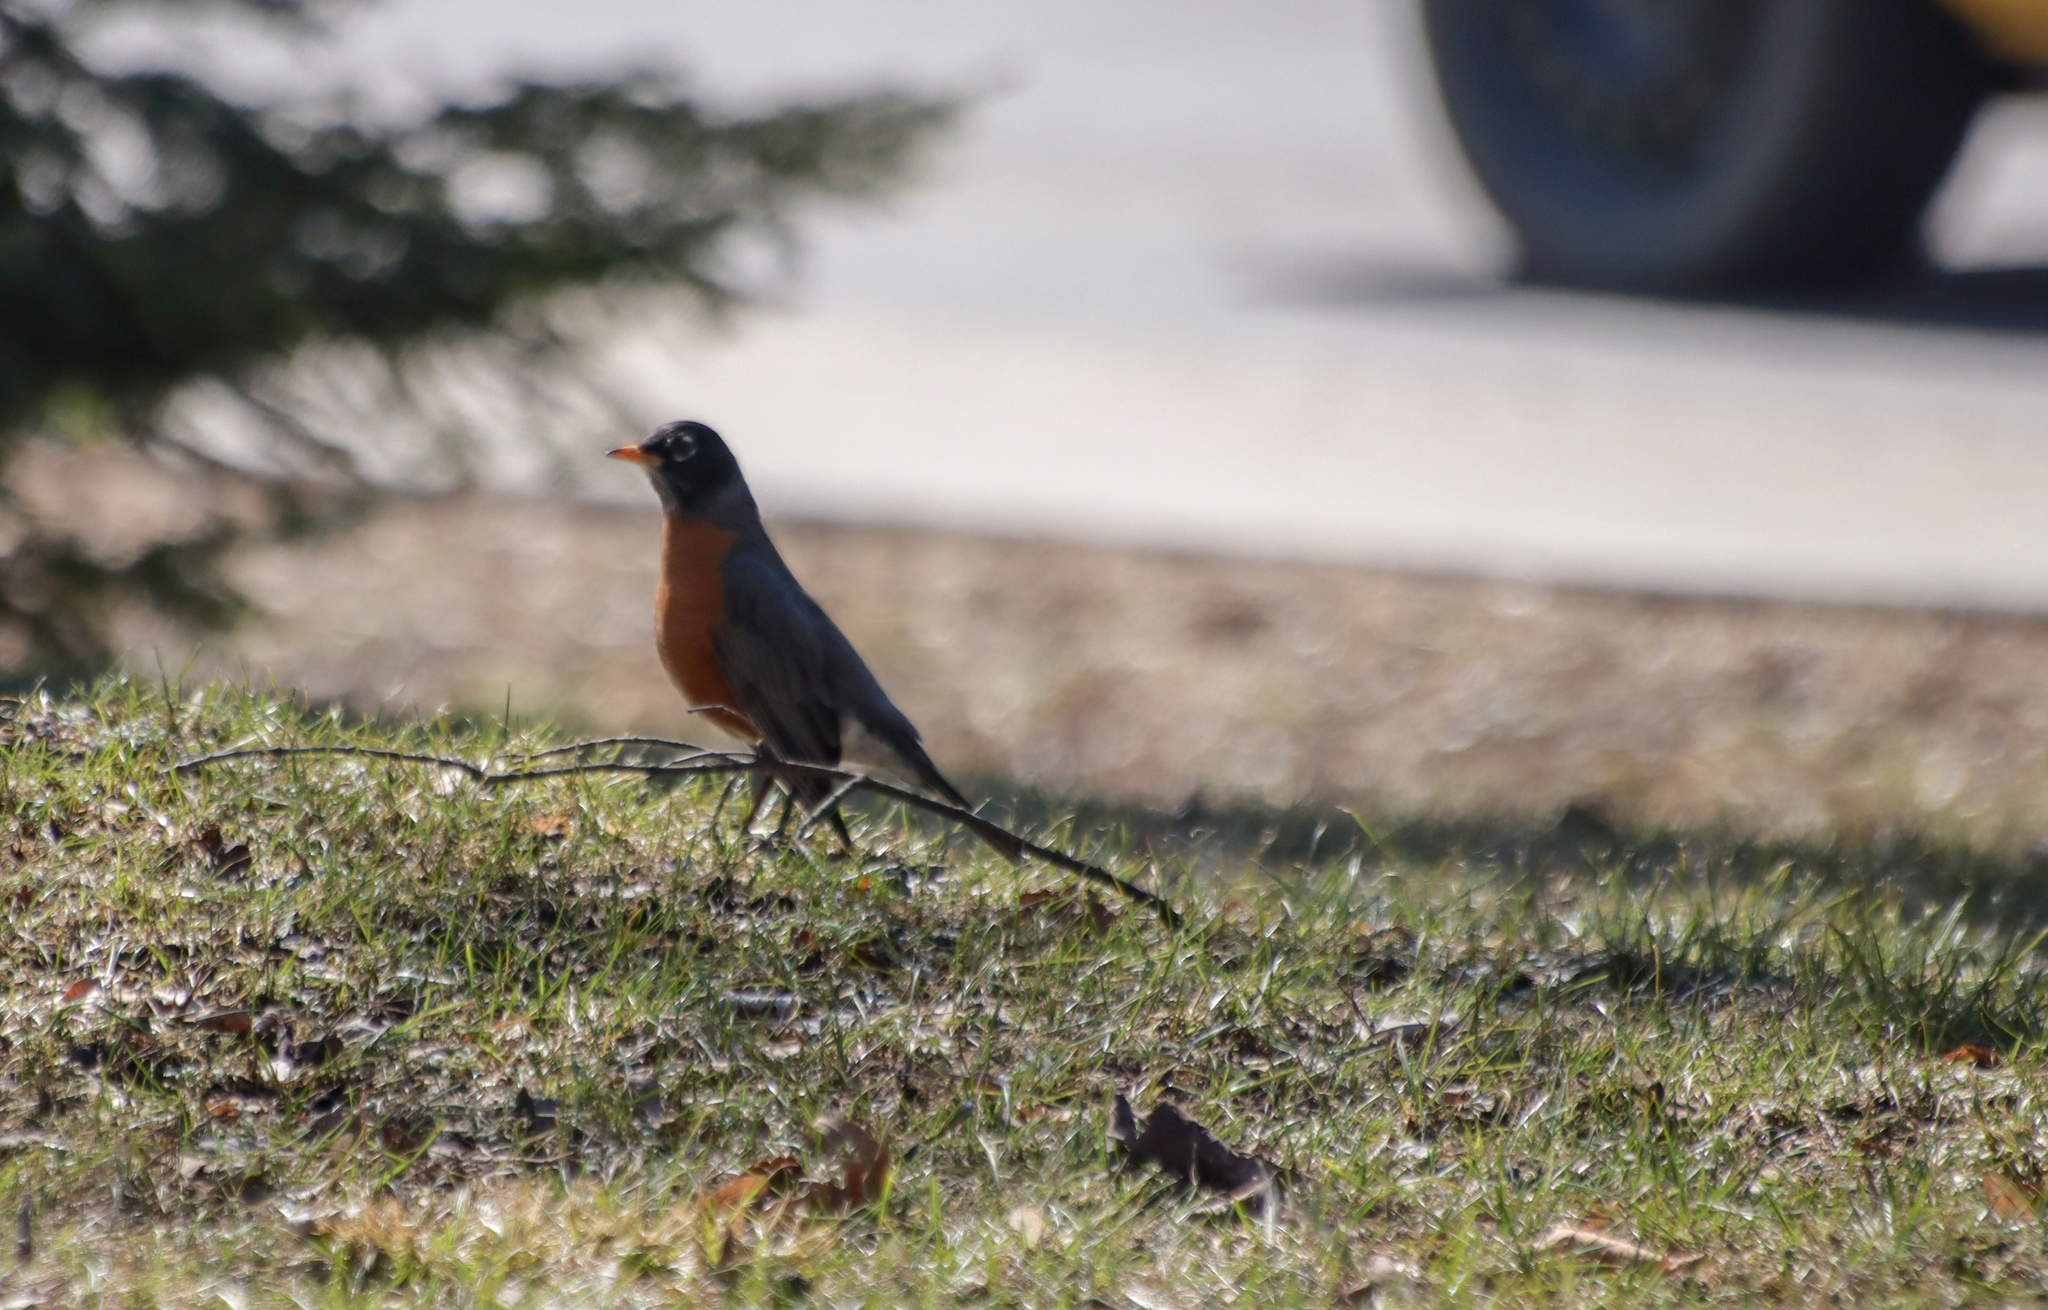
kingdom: Animalia
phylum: Chordata
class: Aves
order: Passeriformes
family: Turdidae
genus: Turdus
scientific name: Turdus migratorius
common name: American robin
